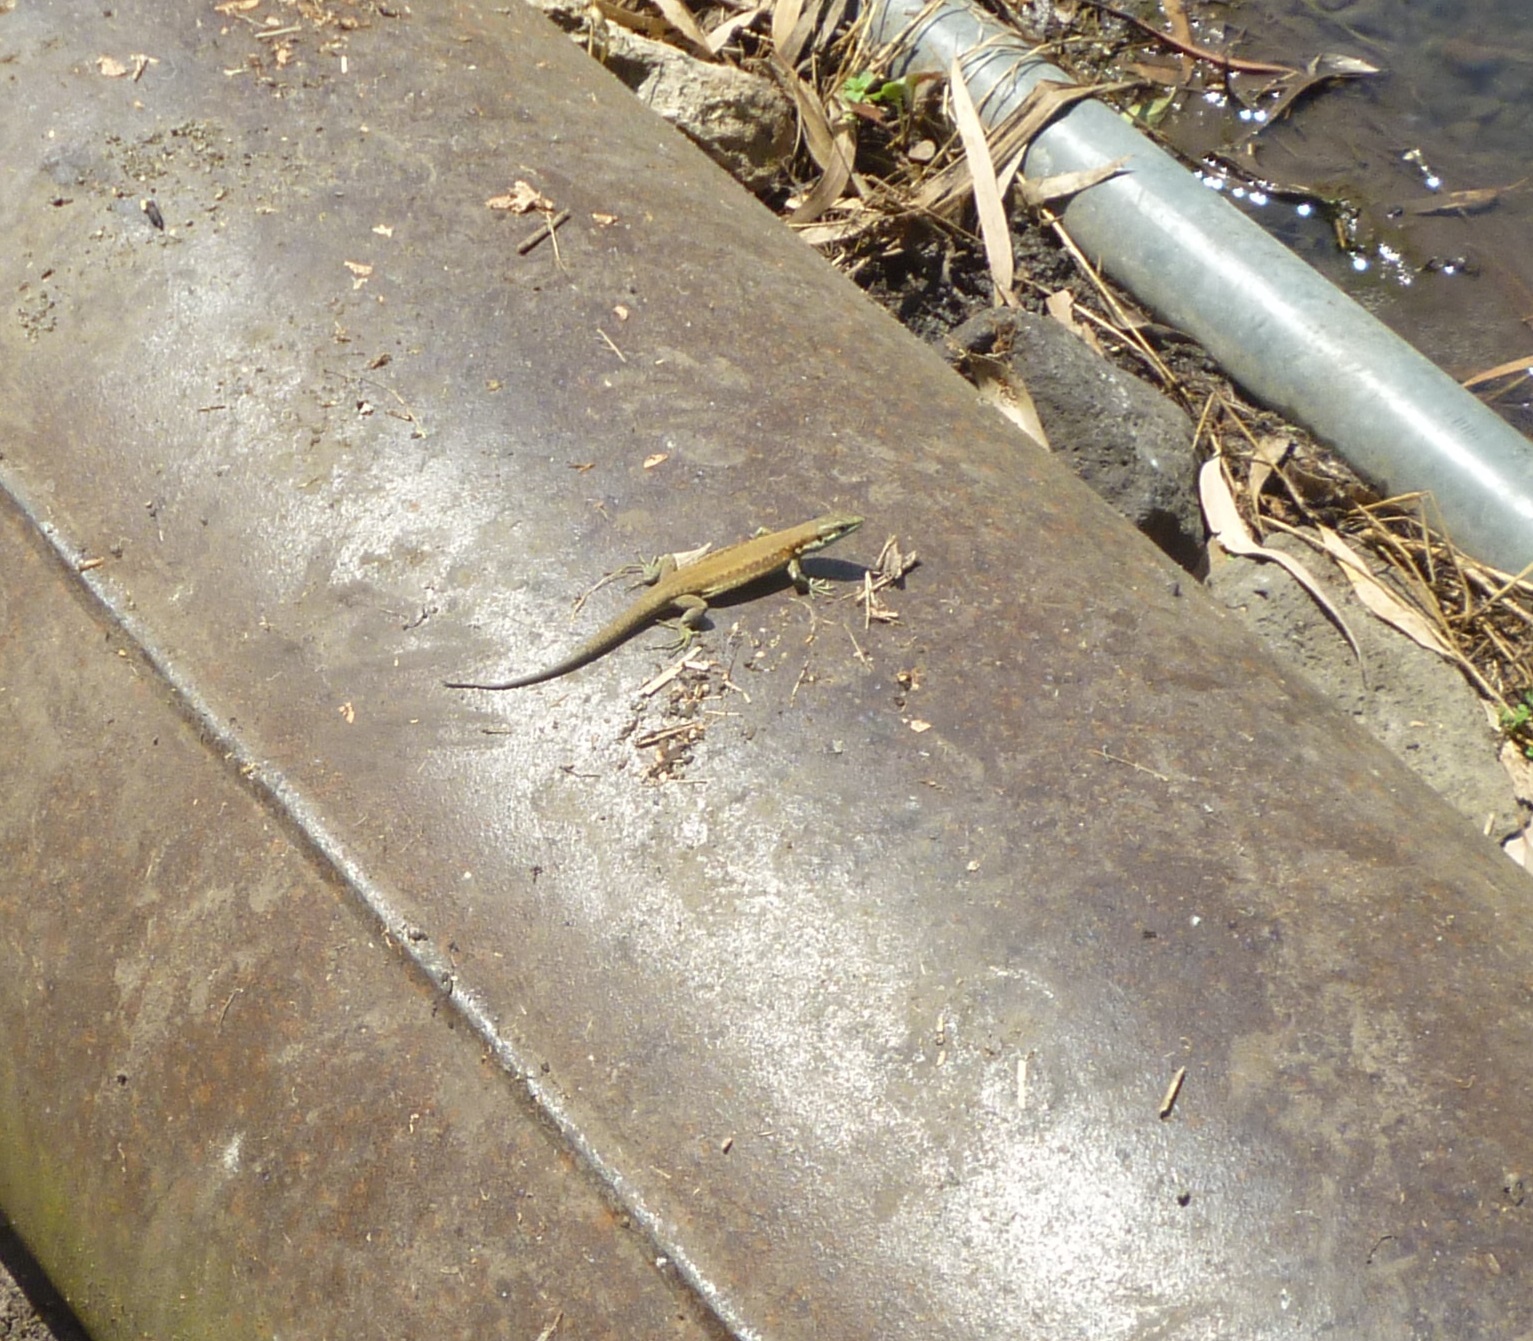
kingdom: Animalia
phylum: Chordata
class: Squamata
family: Lacertidae
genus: Phoenicolacerta
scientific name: Phoenicolacerta laevis
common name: Lebanon lizard
